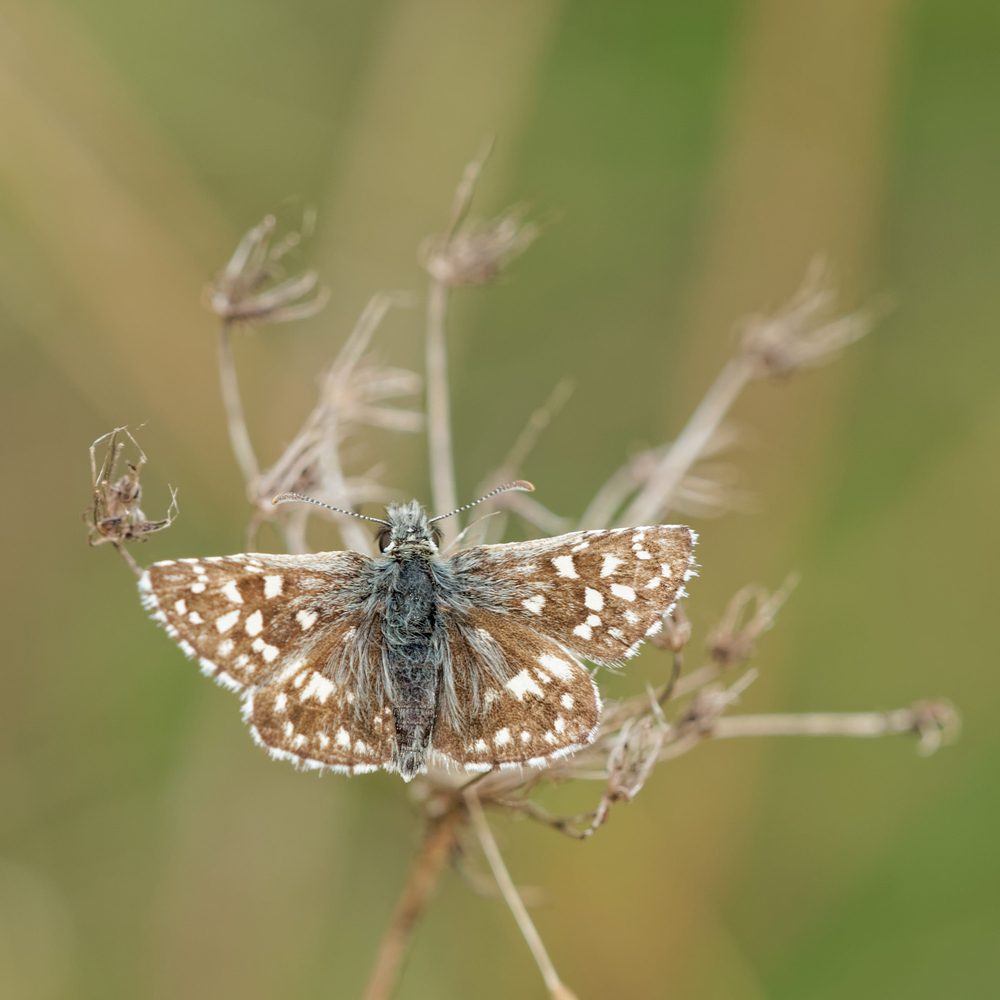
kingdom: Animalia
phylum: Arthropoda
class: Insecta
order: Lepidoptera
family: Hesperiidae
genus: Pyrgus
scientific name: Pyrgus malvae
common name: Grizzled skipper
